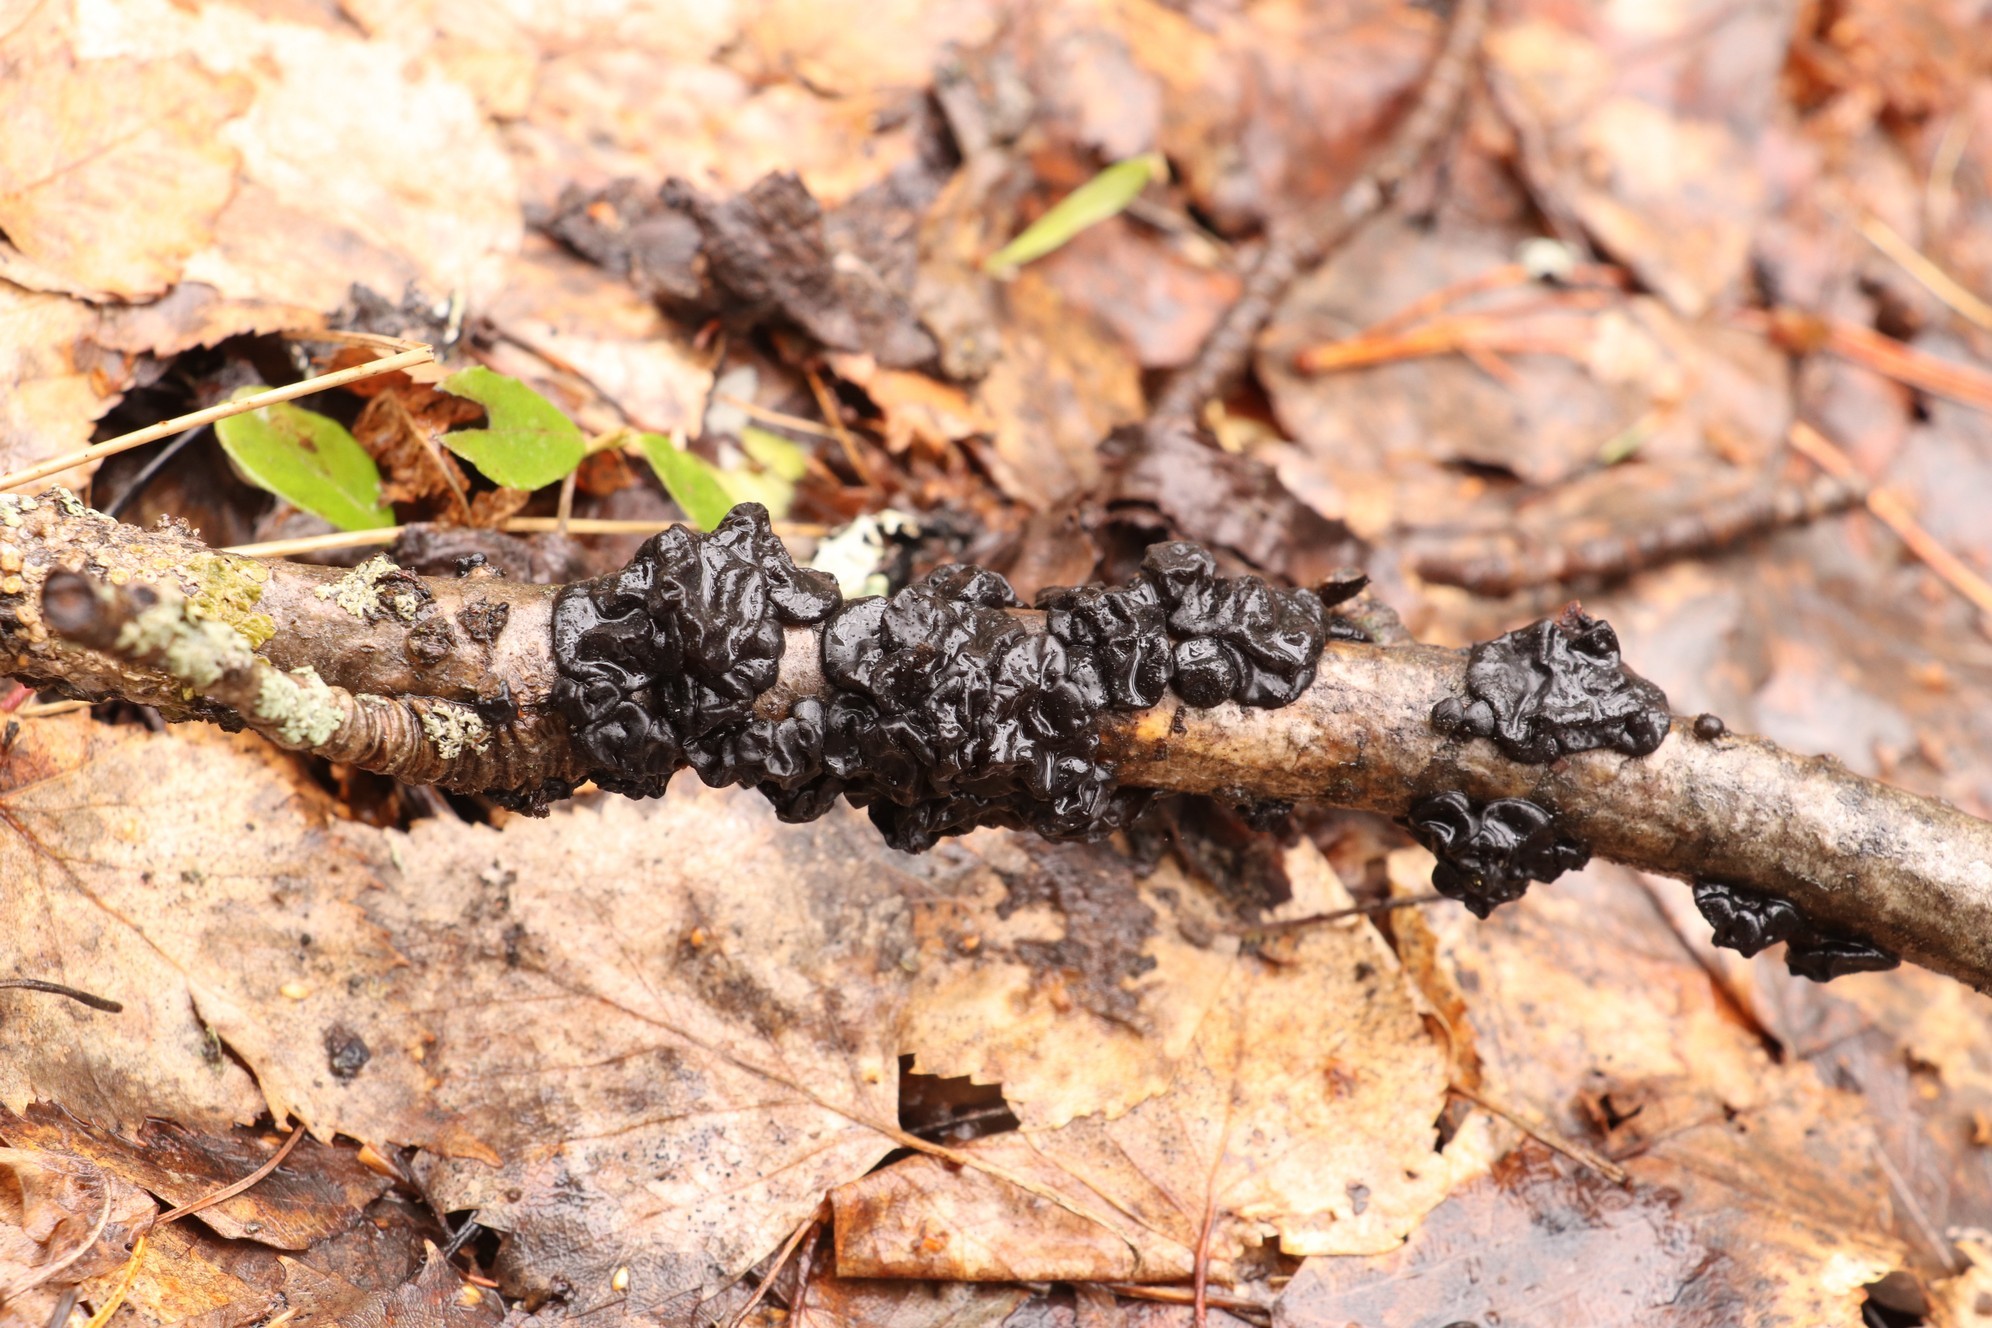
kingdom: Fungi
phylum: Basidiomycota
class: Agaricomycetes
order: Auriculariales
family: Auriculariaceae
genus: Exidia
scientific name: Exidia glandulosa
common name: Witches' butter
